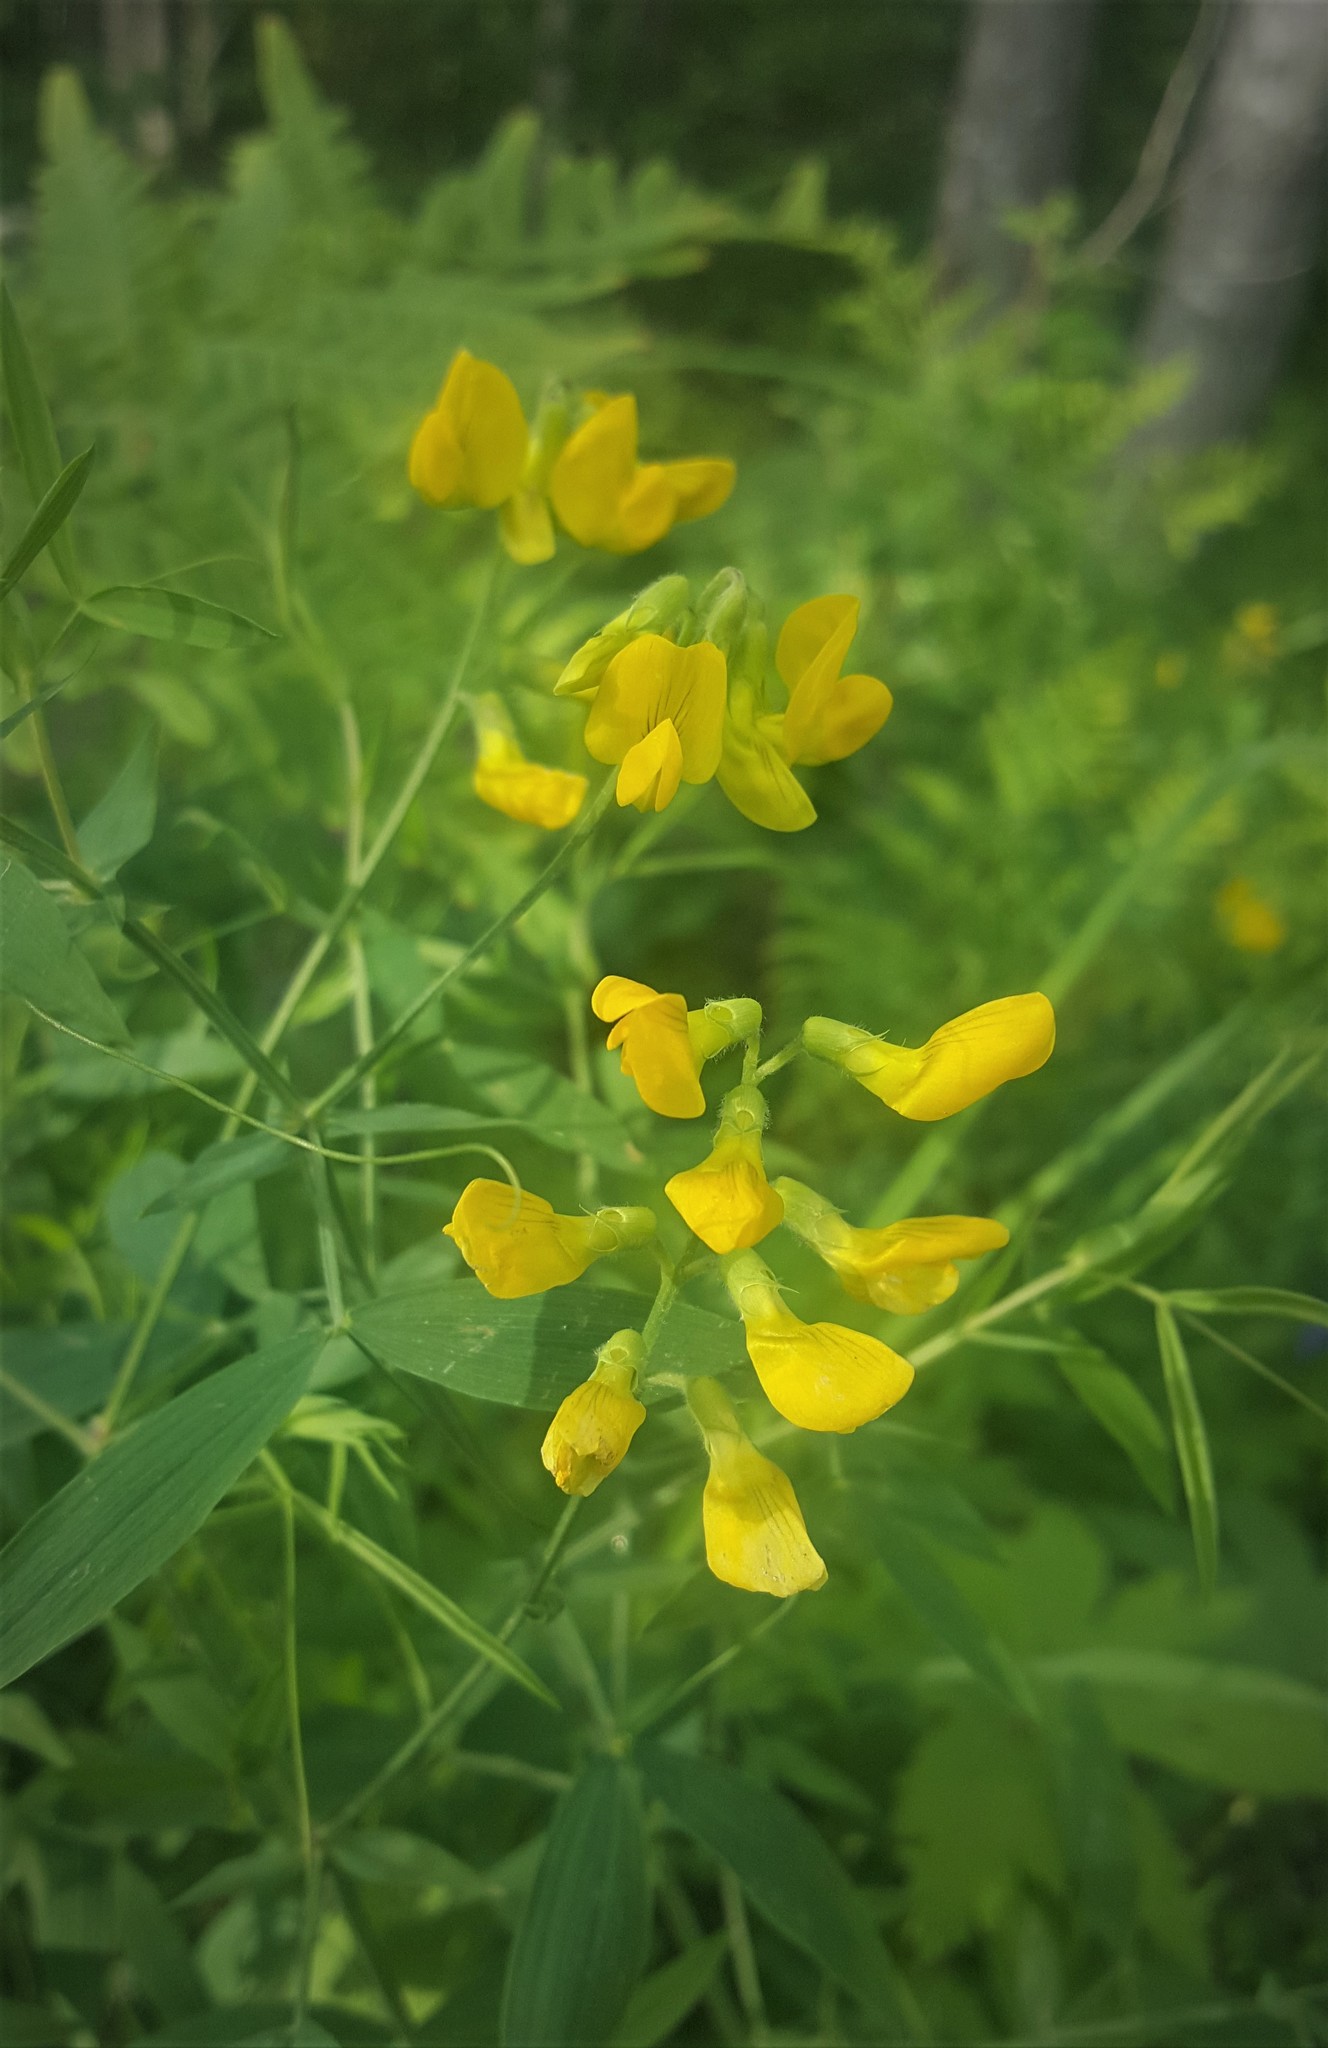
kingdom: Plantae
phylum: Tracheophyta
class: Magnoliopsida
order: Fabales
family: Fabaceae
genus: Lathyrus
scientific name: Lathyrus pratensis
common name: Meadow vetchling
